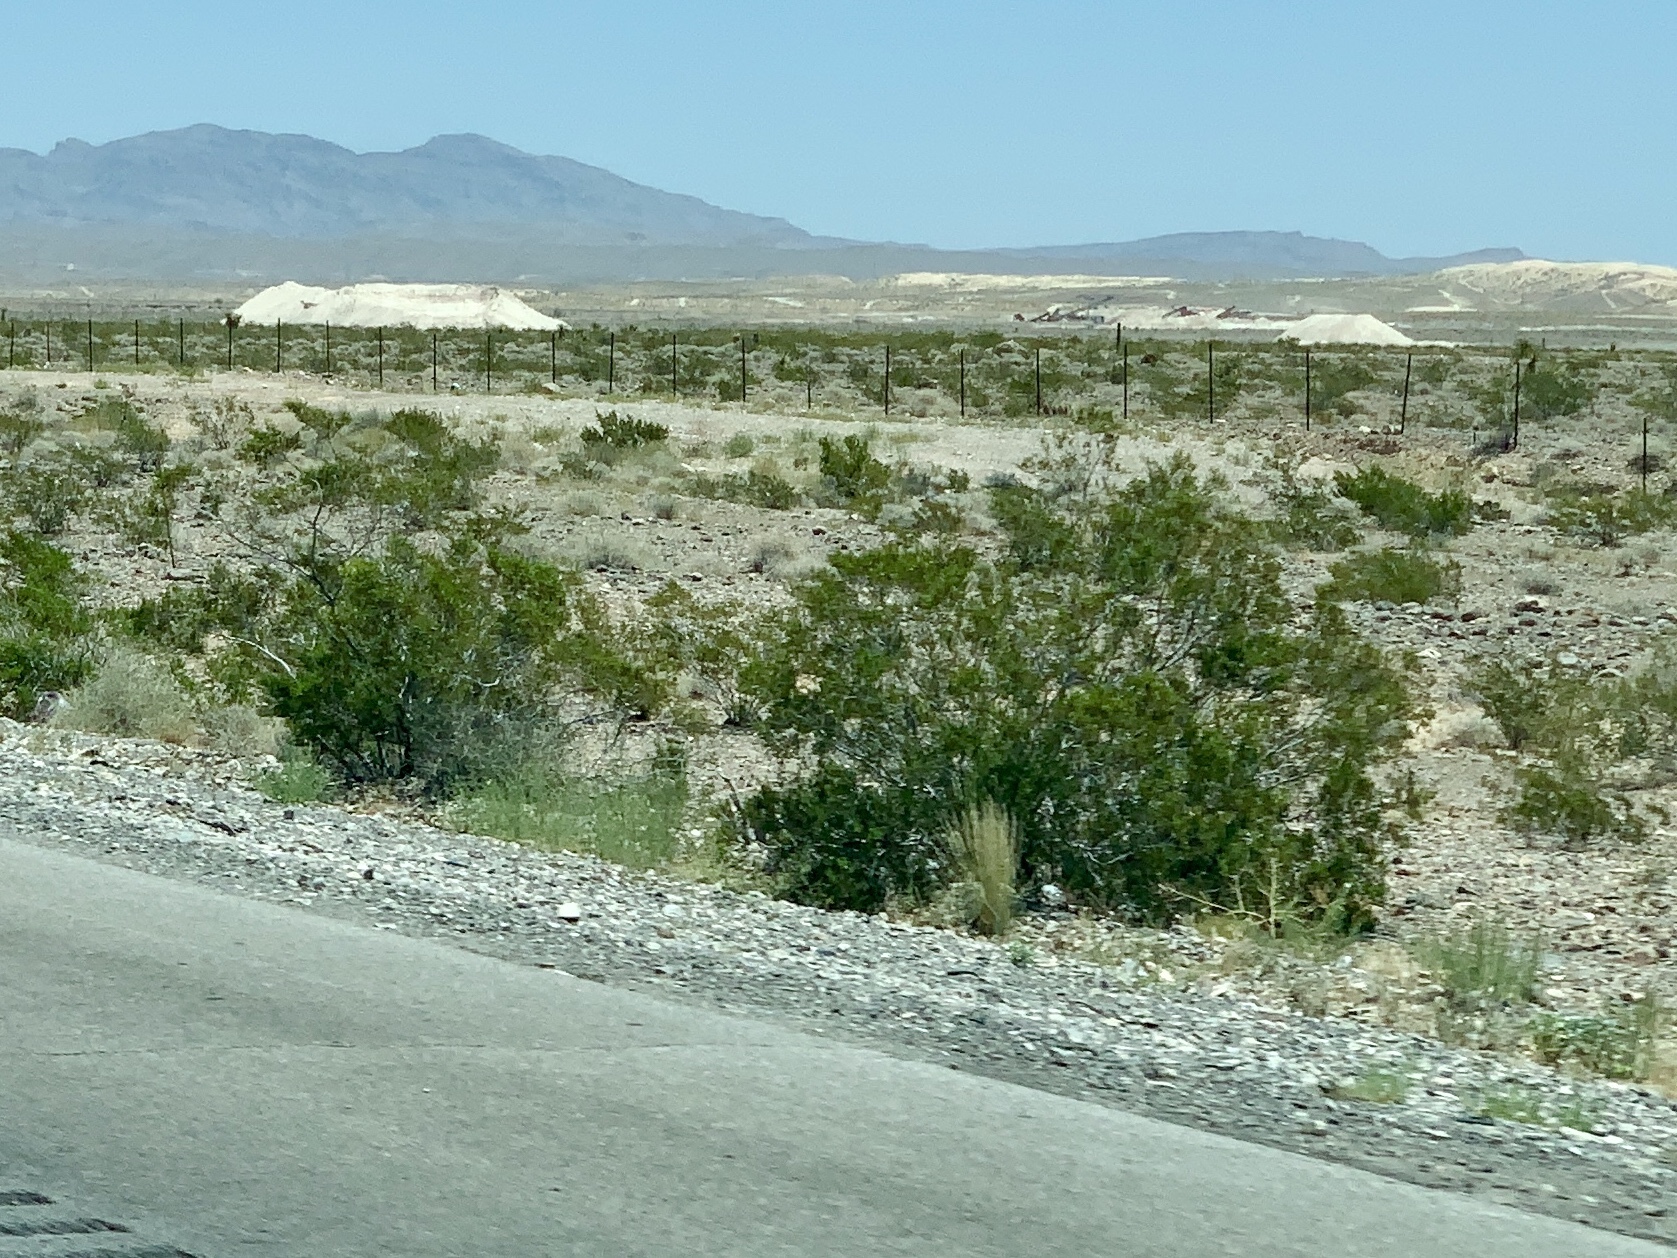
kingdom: Plantae
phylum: Tracheophyta
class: Magnoliopsida
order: Zygophyllales
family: Zygophyllaceae
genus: Larrea
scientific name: Larrea tridentata
